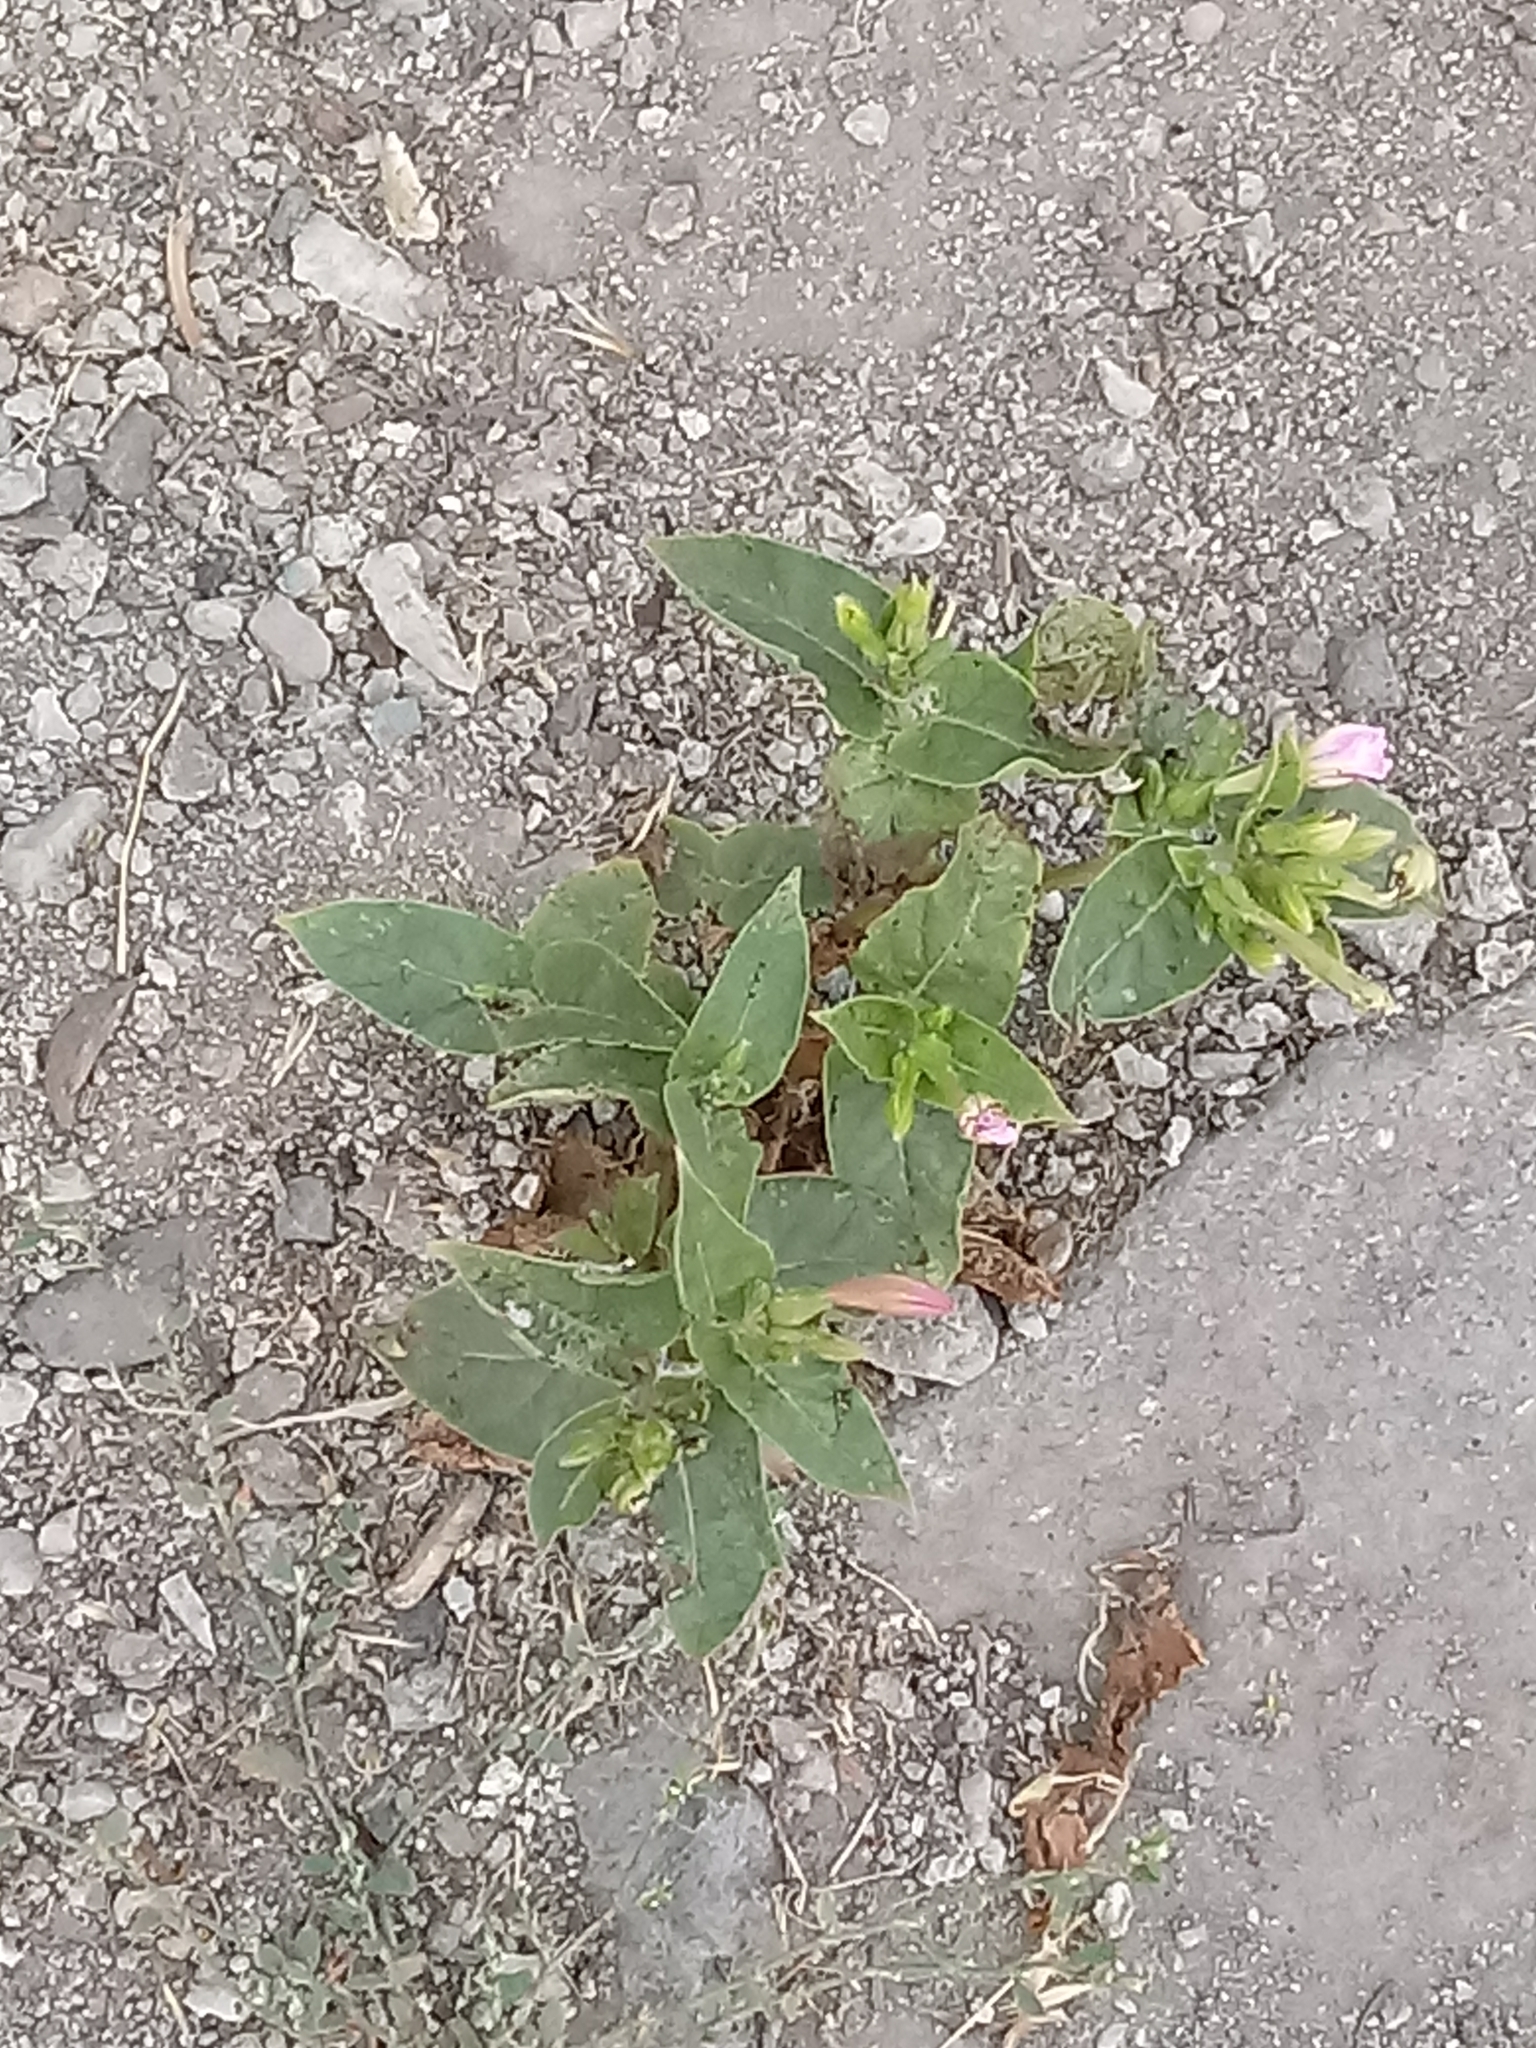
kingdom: Plantae
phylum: Tracheophyta
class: Magnoliopsida
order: Caryophyllales
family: Nyctaginaceae
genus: Mirabilis
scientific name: Mirabilis jalapa
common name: Marvel-of-peru
